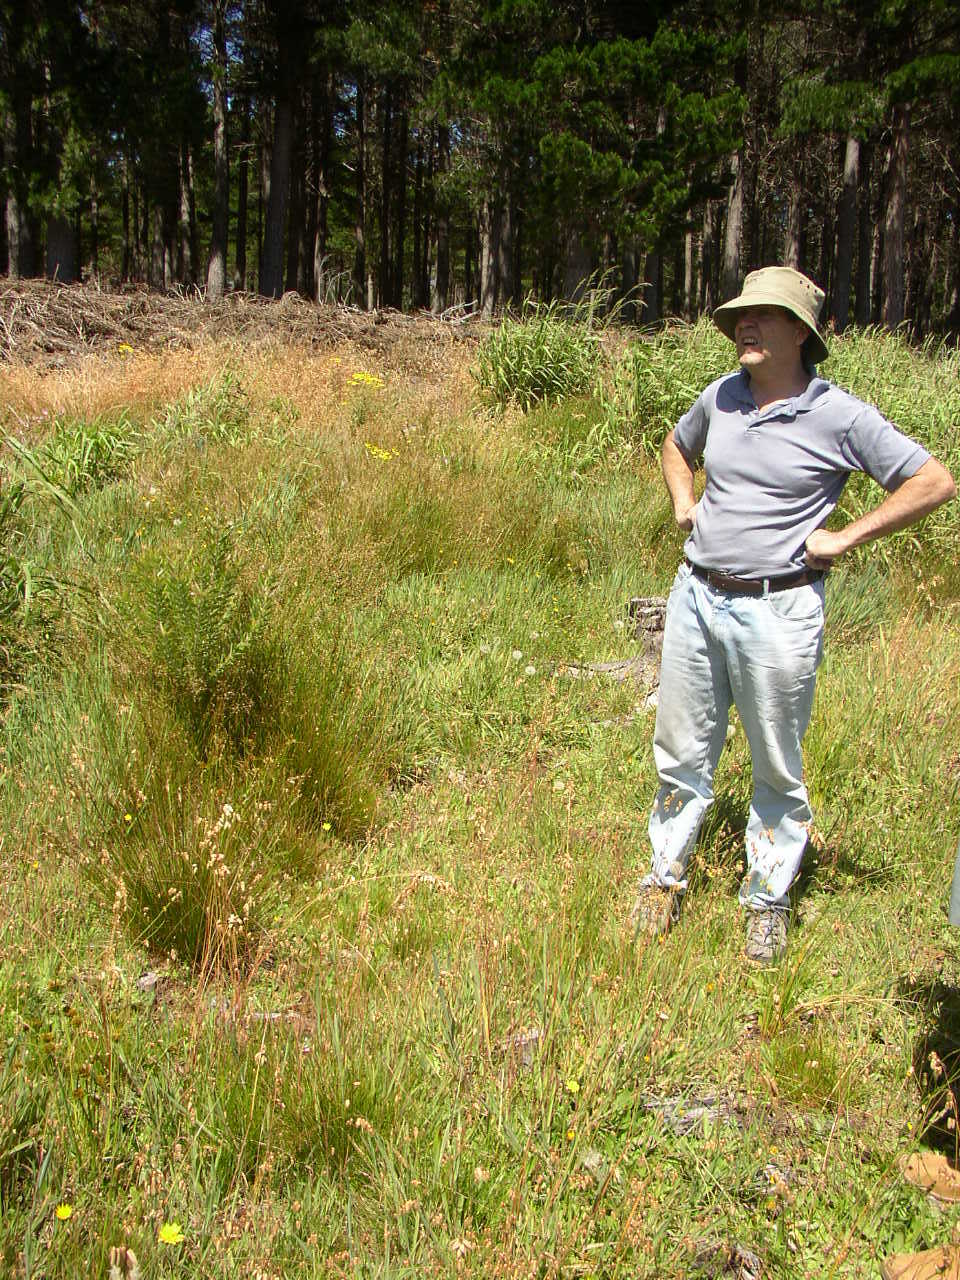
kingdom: Plantae
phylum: Tracheophyta
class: Magnoliopsida
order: Proteales
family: Proteaceae
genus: Leucadendron
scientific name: Leucadendron macowanii
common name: Acacia-leaf conebush
